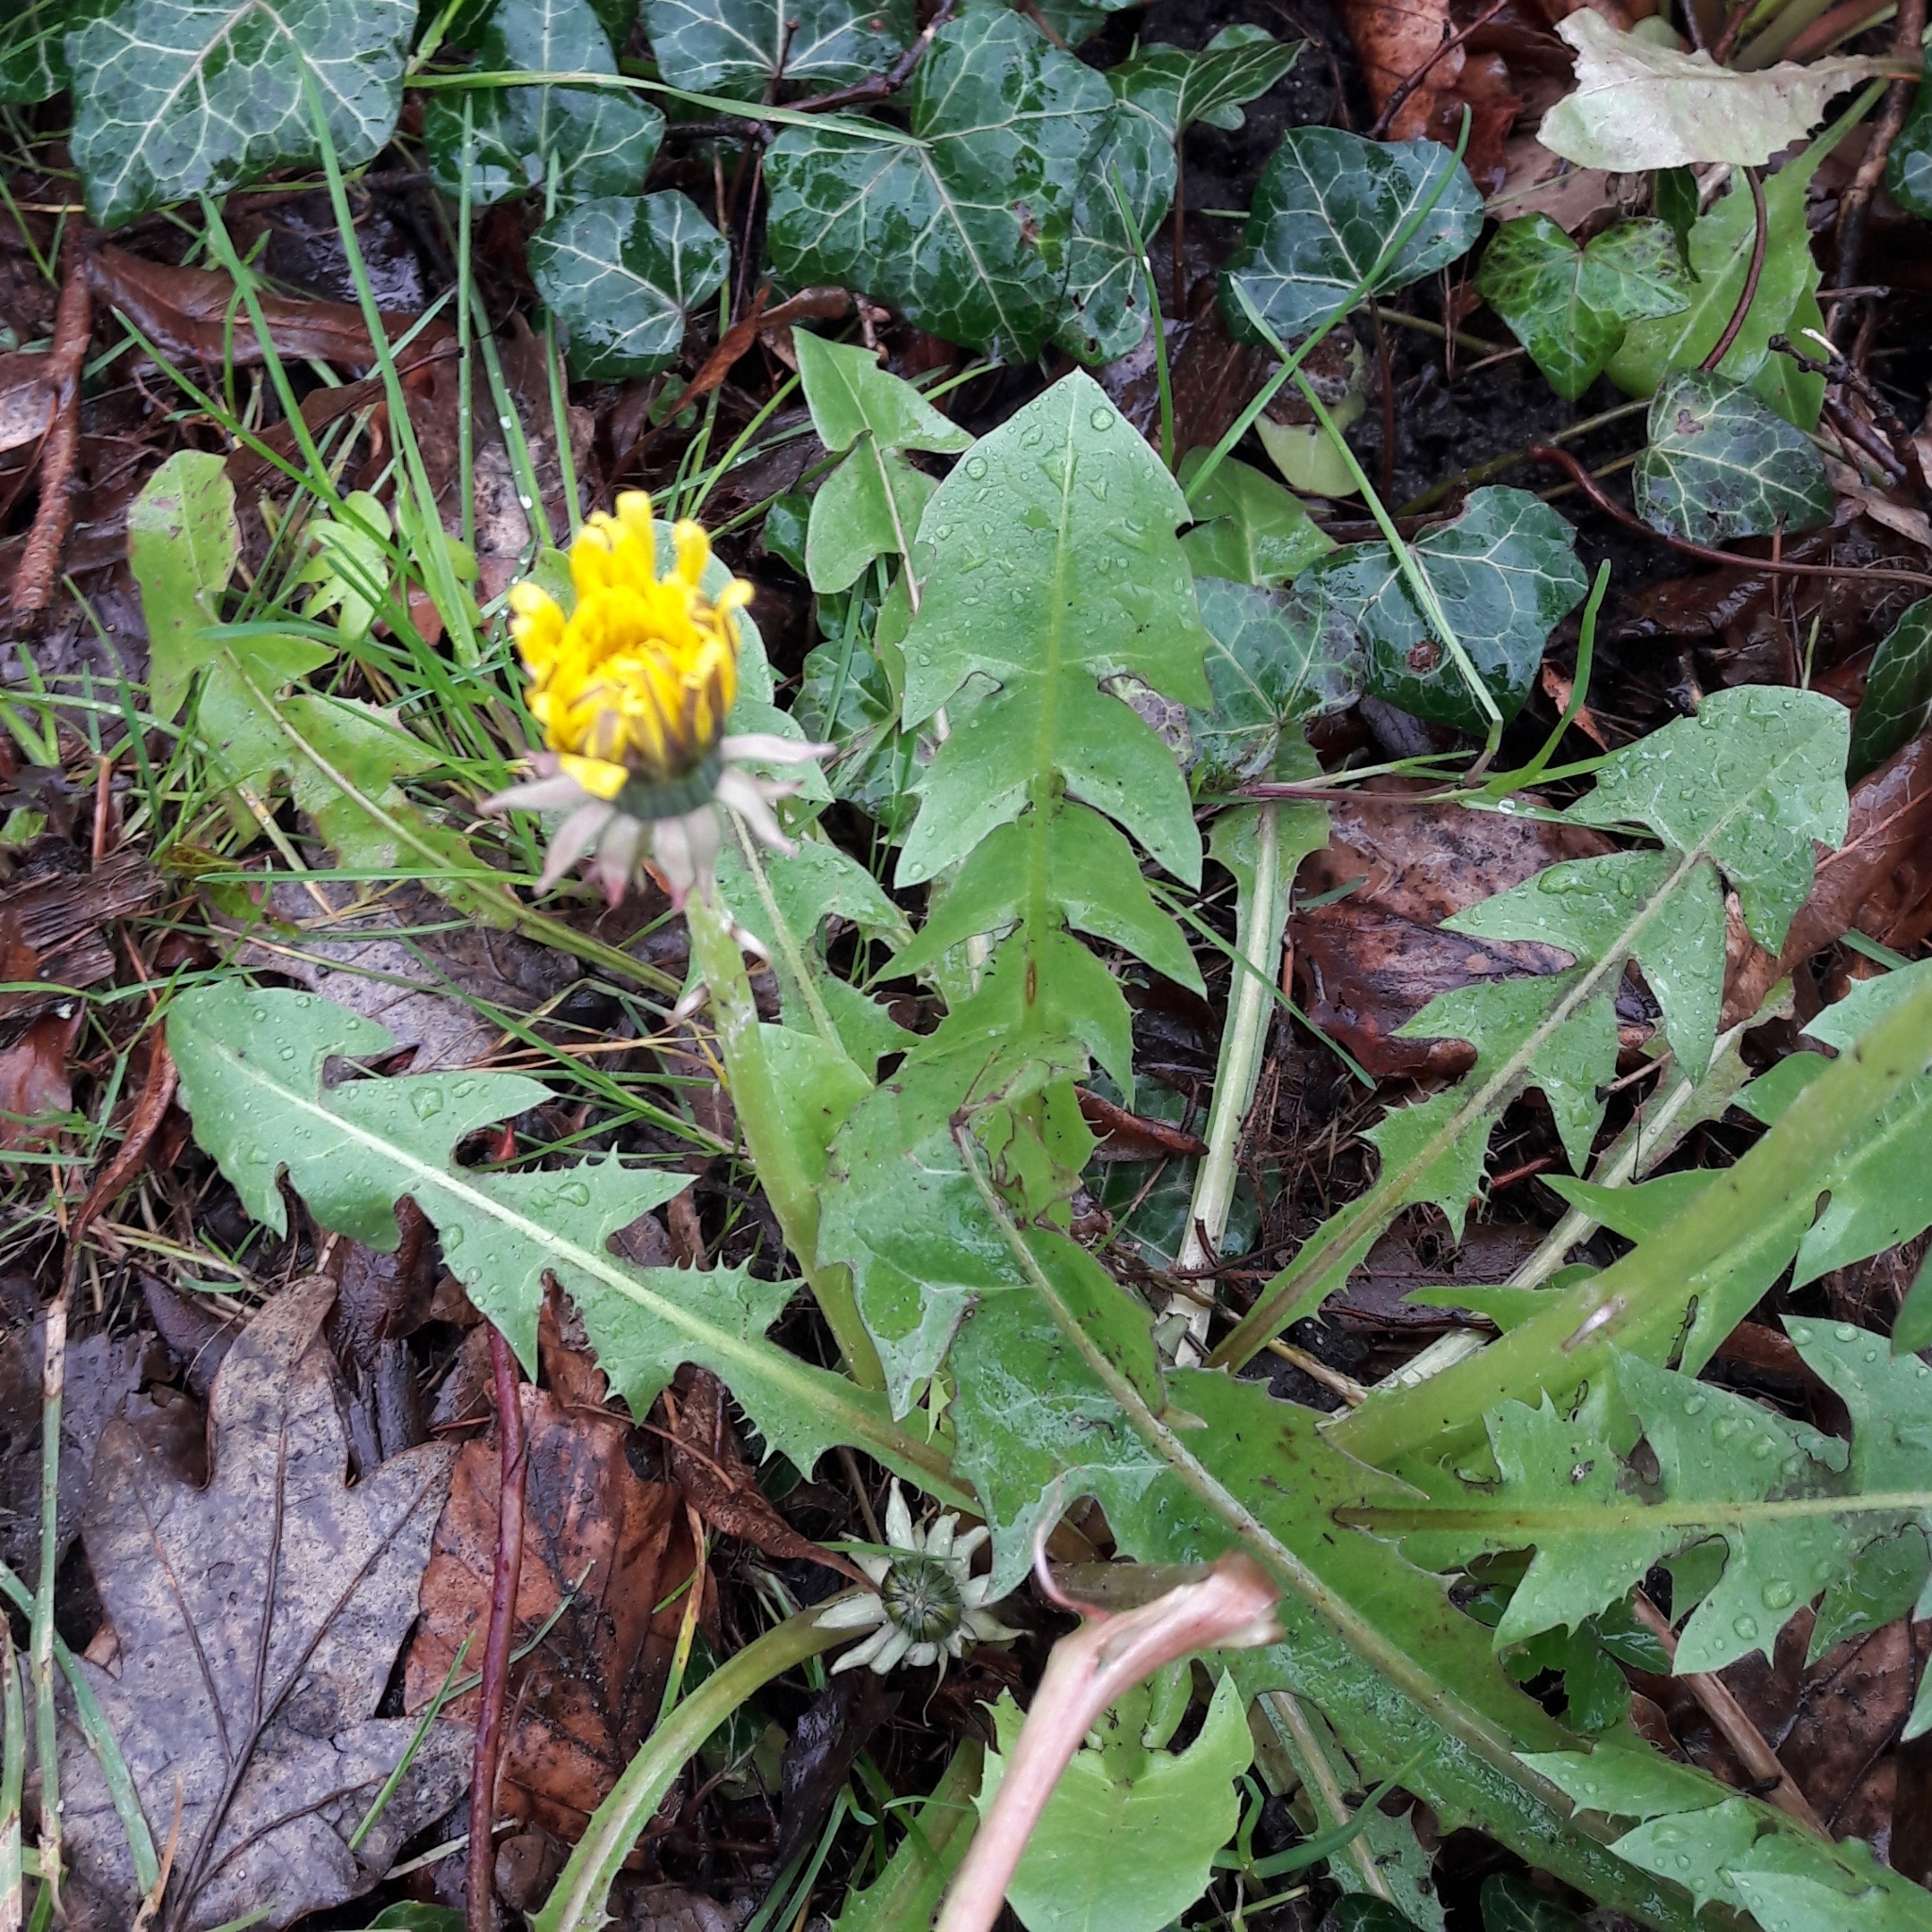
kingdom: Plantae
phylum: Tracheophyta
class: Magnoliopsida
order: Asterales
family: Asteraceae
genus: Taraxacum
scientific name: Taraxacum officinale
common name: Common dandelion
